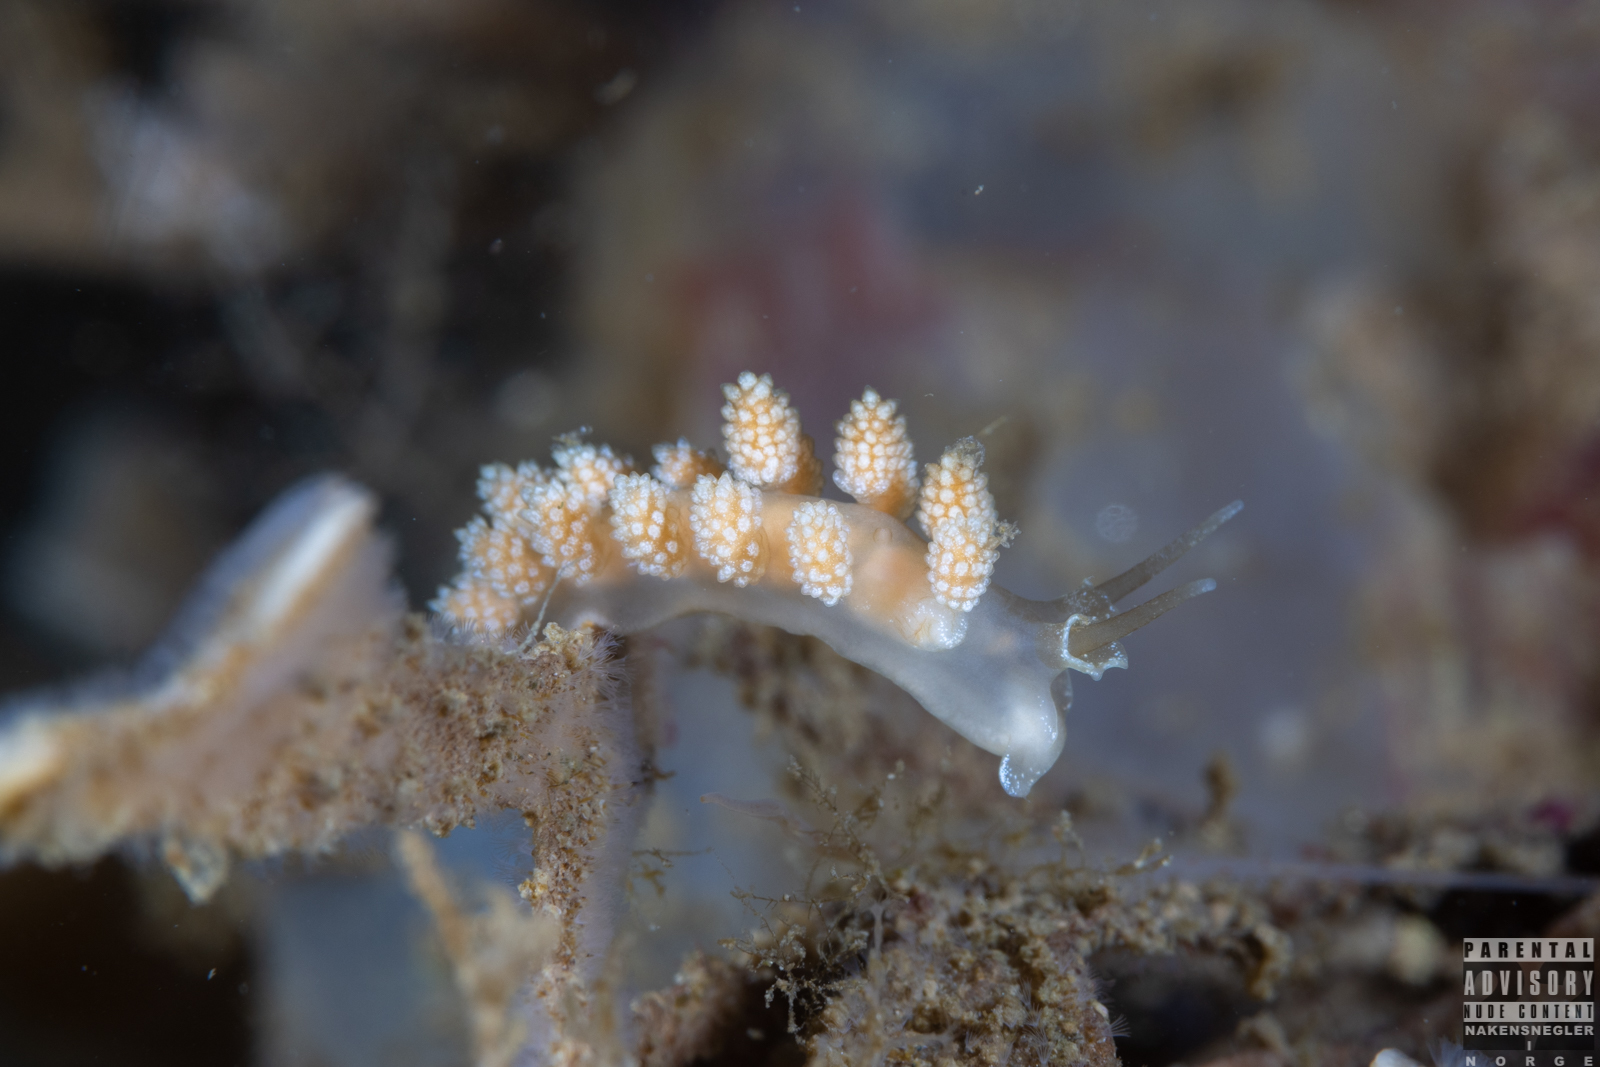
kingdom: Animalia
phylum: Mollusca
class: Gastropoda
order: Nudibranchia
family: Dotidae
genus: Doto
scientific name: Doto fragilis
